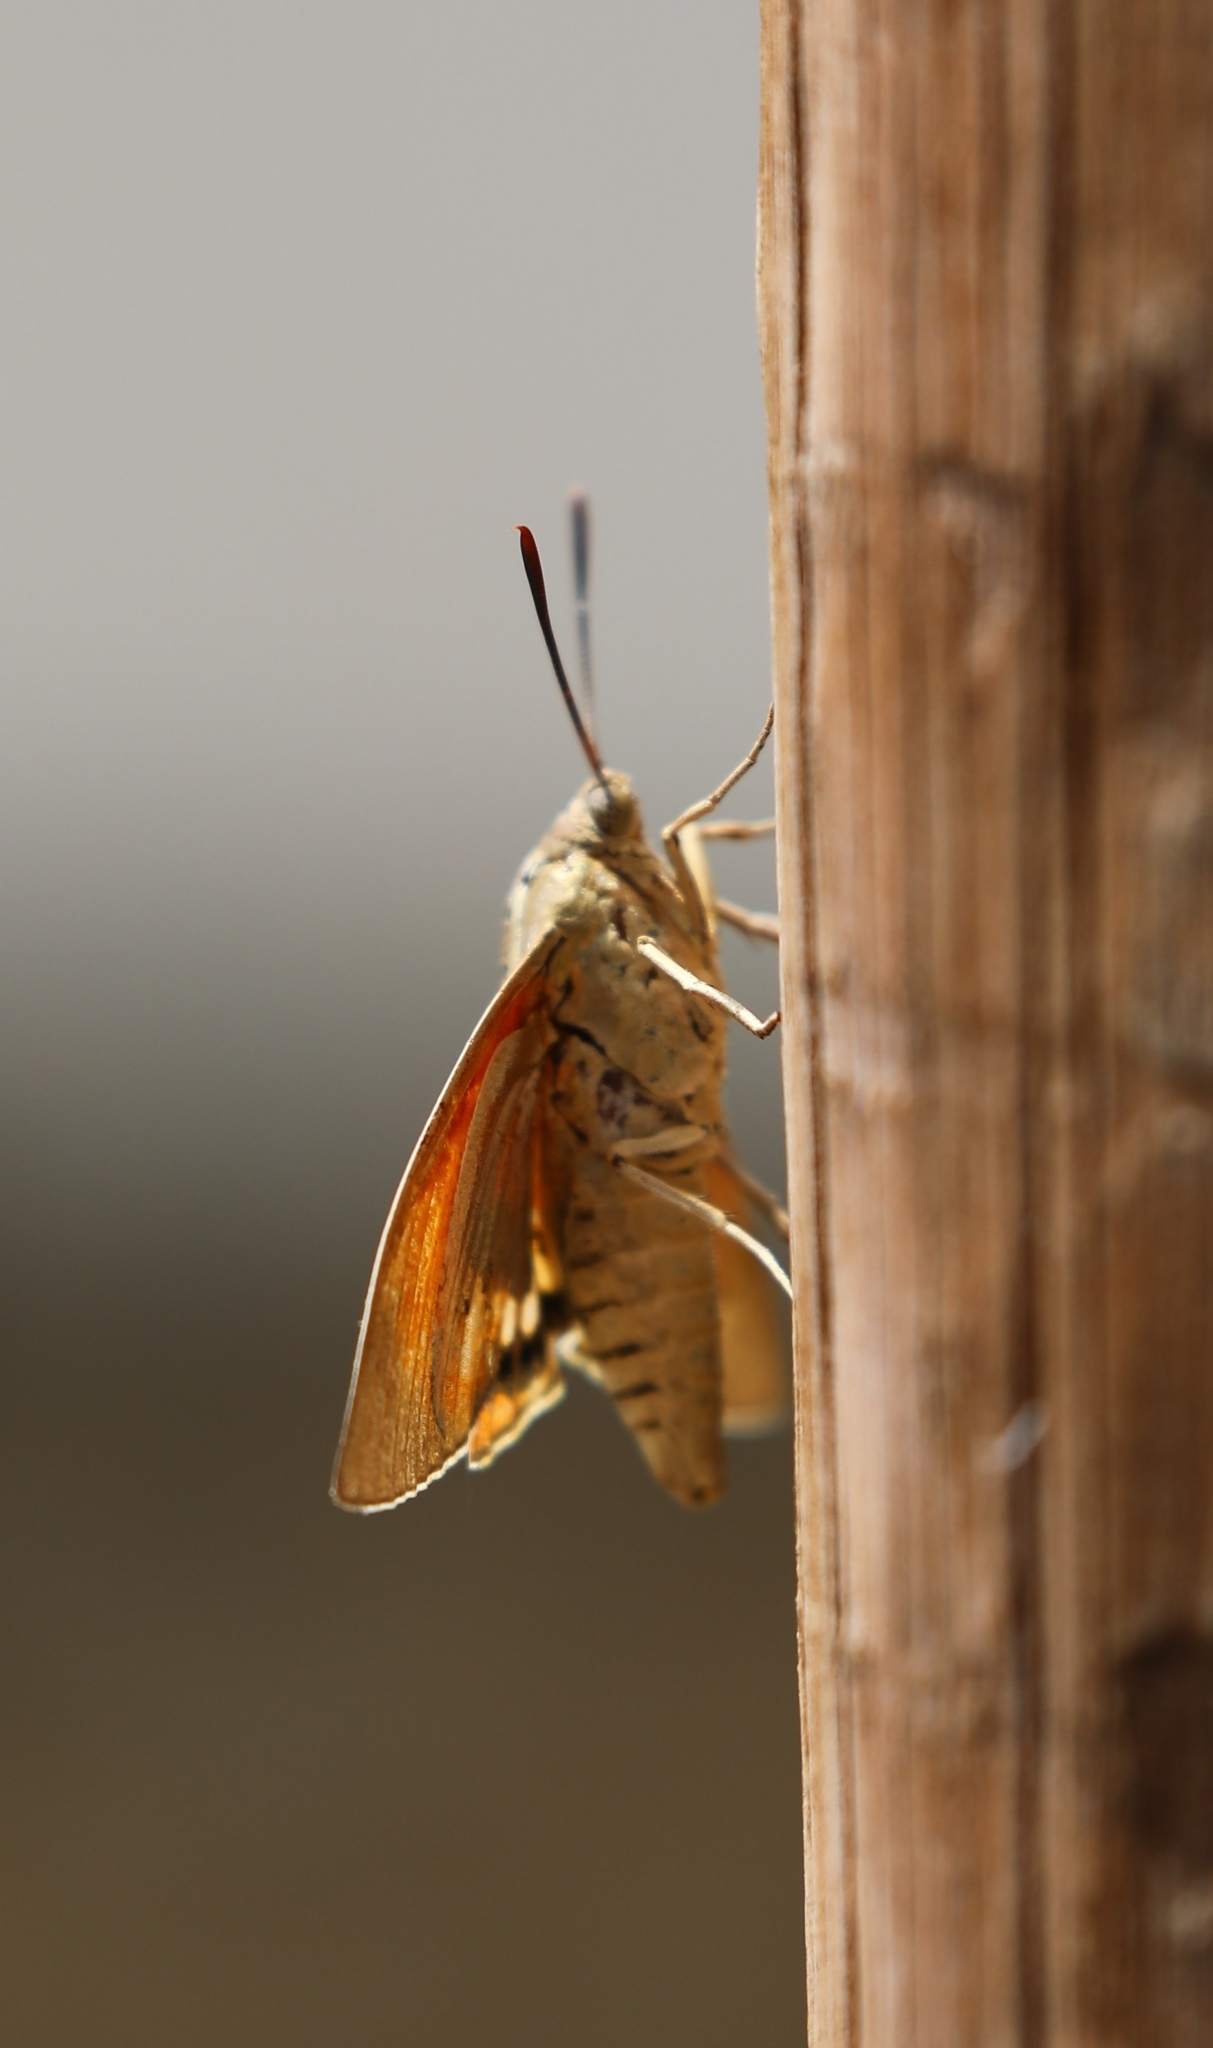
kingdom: Animalia
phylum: Arthropoda
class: Insecta
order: Lepidoptera
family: Castniidae
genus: Paysandisia
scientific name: Paysandisia archon
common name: Palm moth
